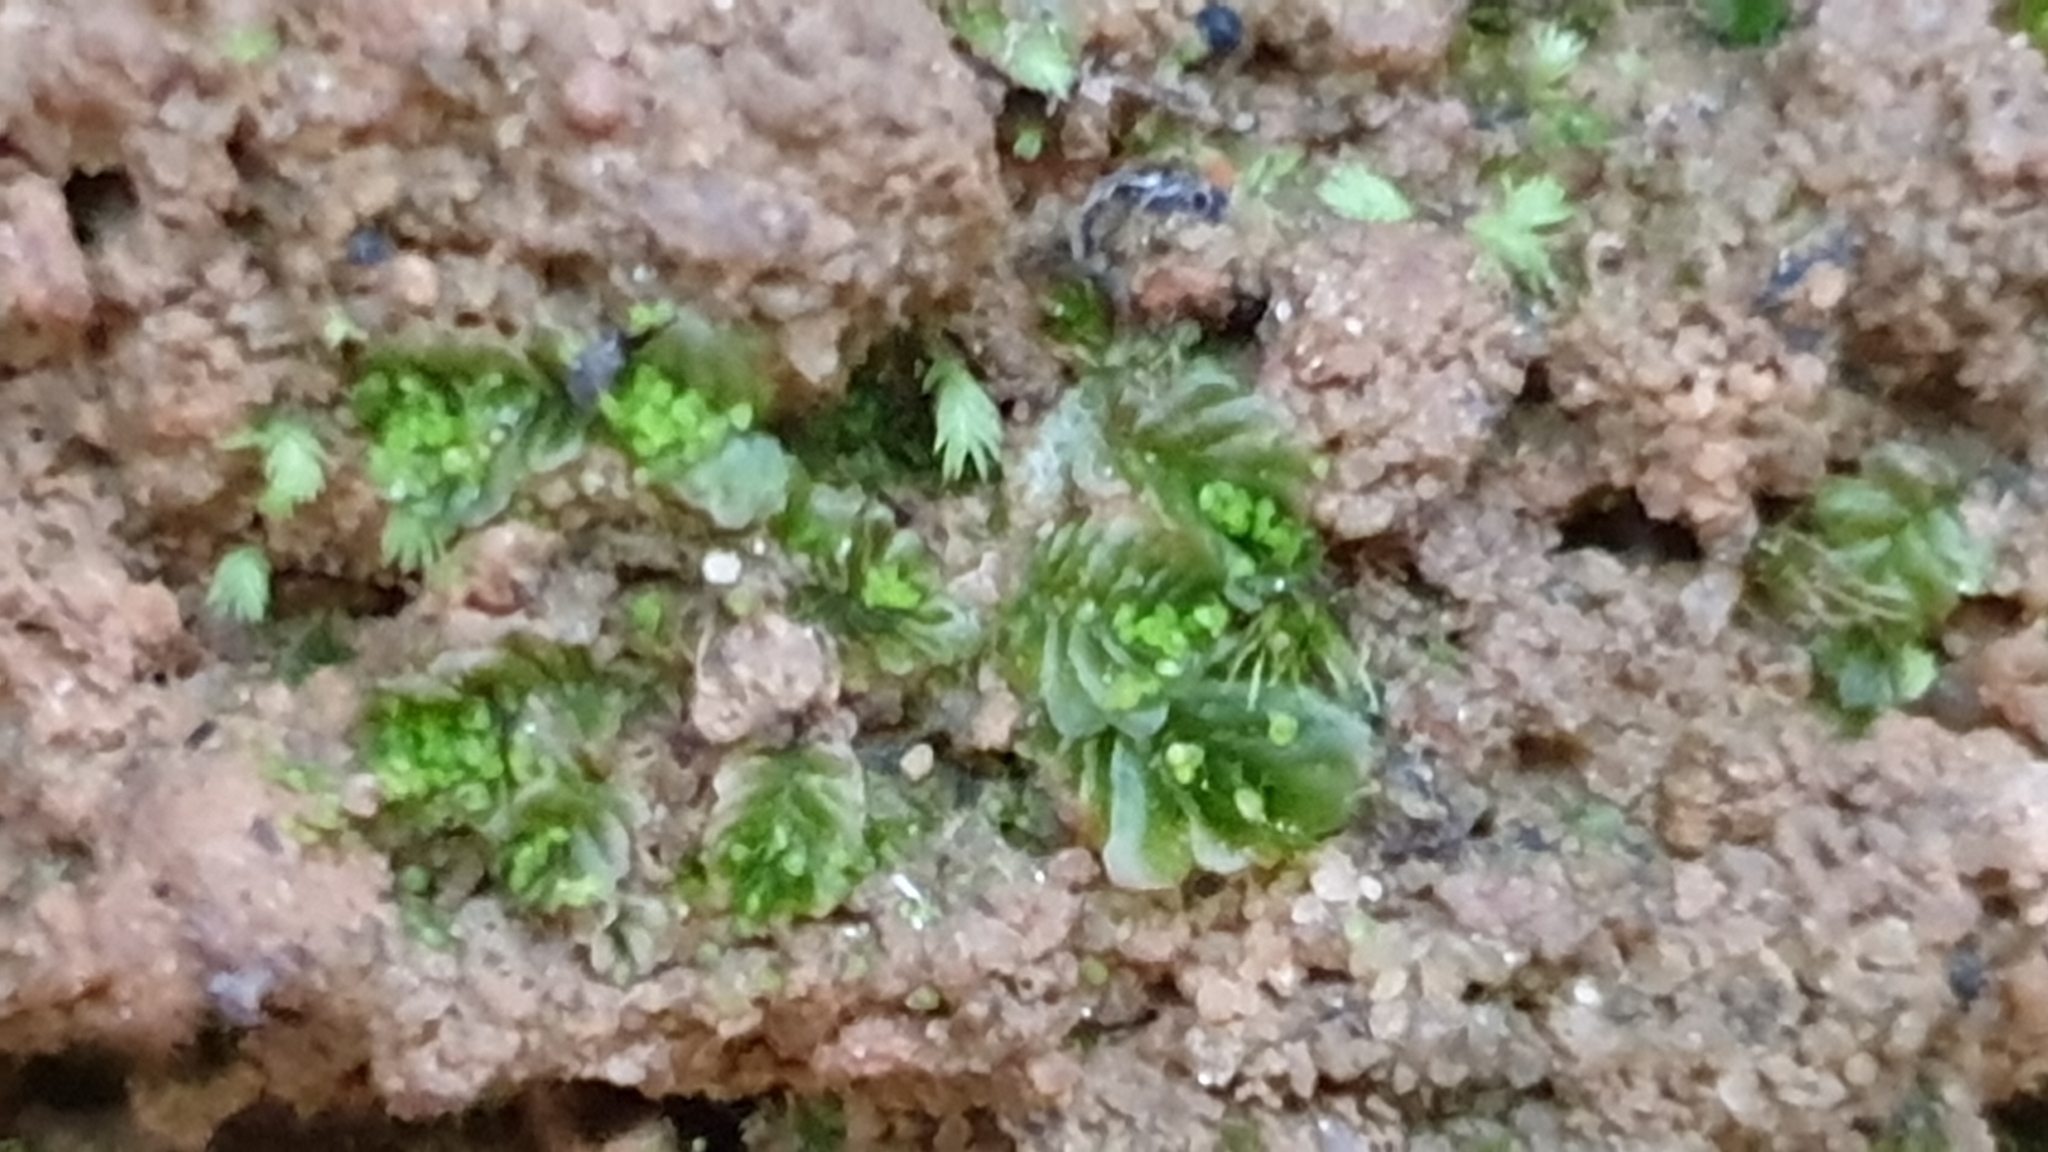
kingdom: Plantae
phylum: Marchantiophyta
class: Jungermanniopsida
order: Jungermanniales
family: Acrobolbaceae
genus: Lethocolea
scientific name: Lethocolea pansa
